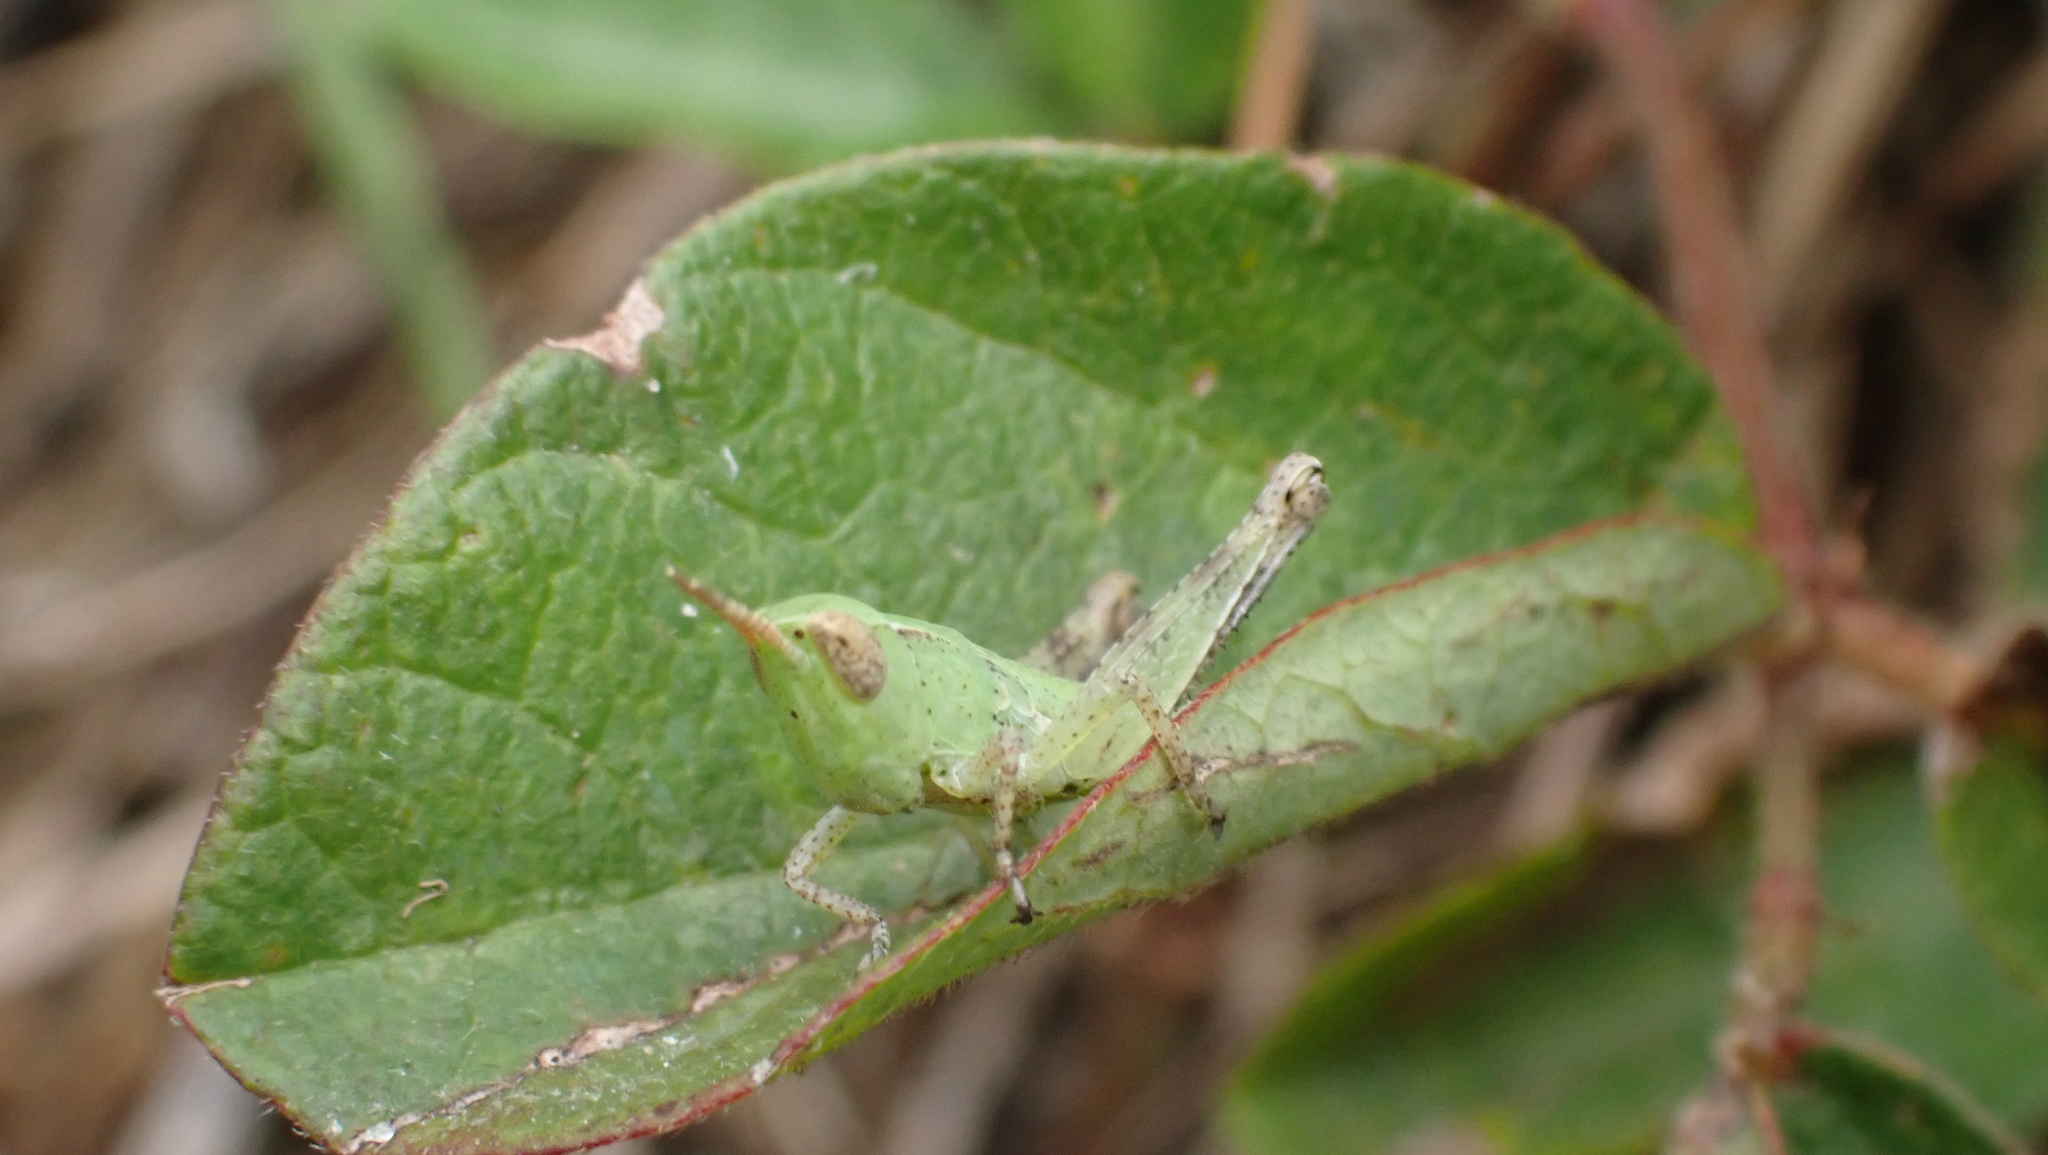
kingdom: Animalia
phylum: Arthropoda
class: Insecta
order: Orthoptera
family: Acrididae
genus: Dichromorpha
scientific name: Dichromorpha viridis
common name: Short-winged green grasshopper
